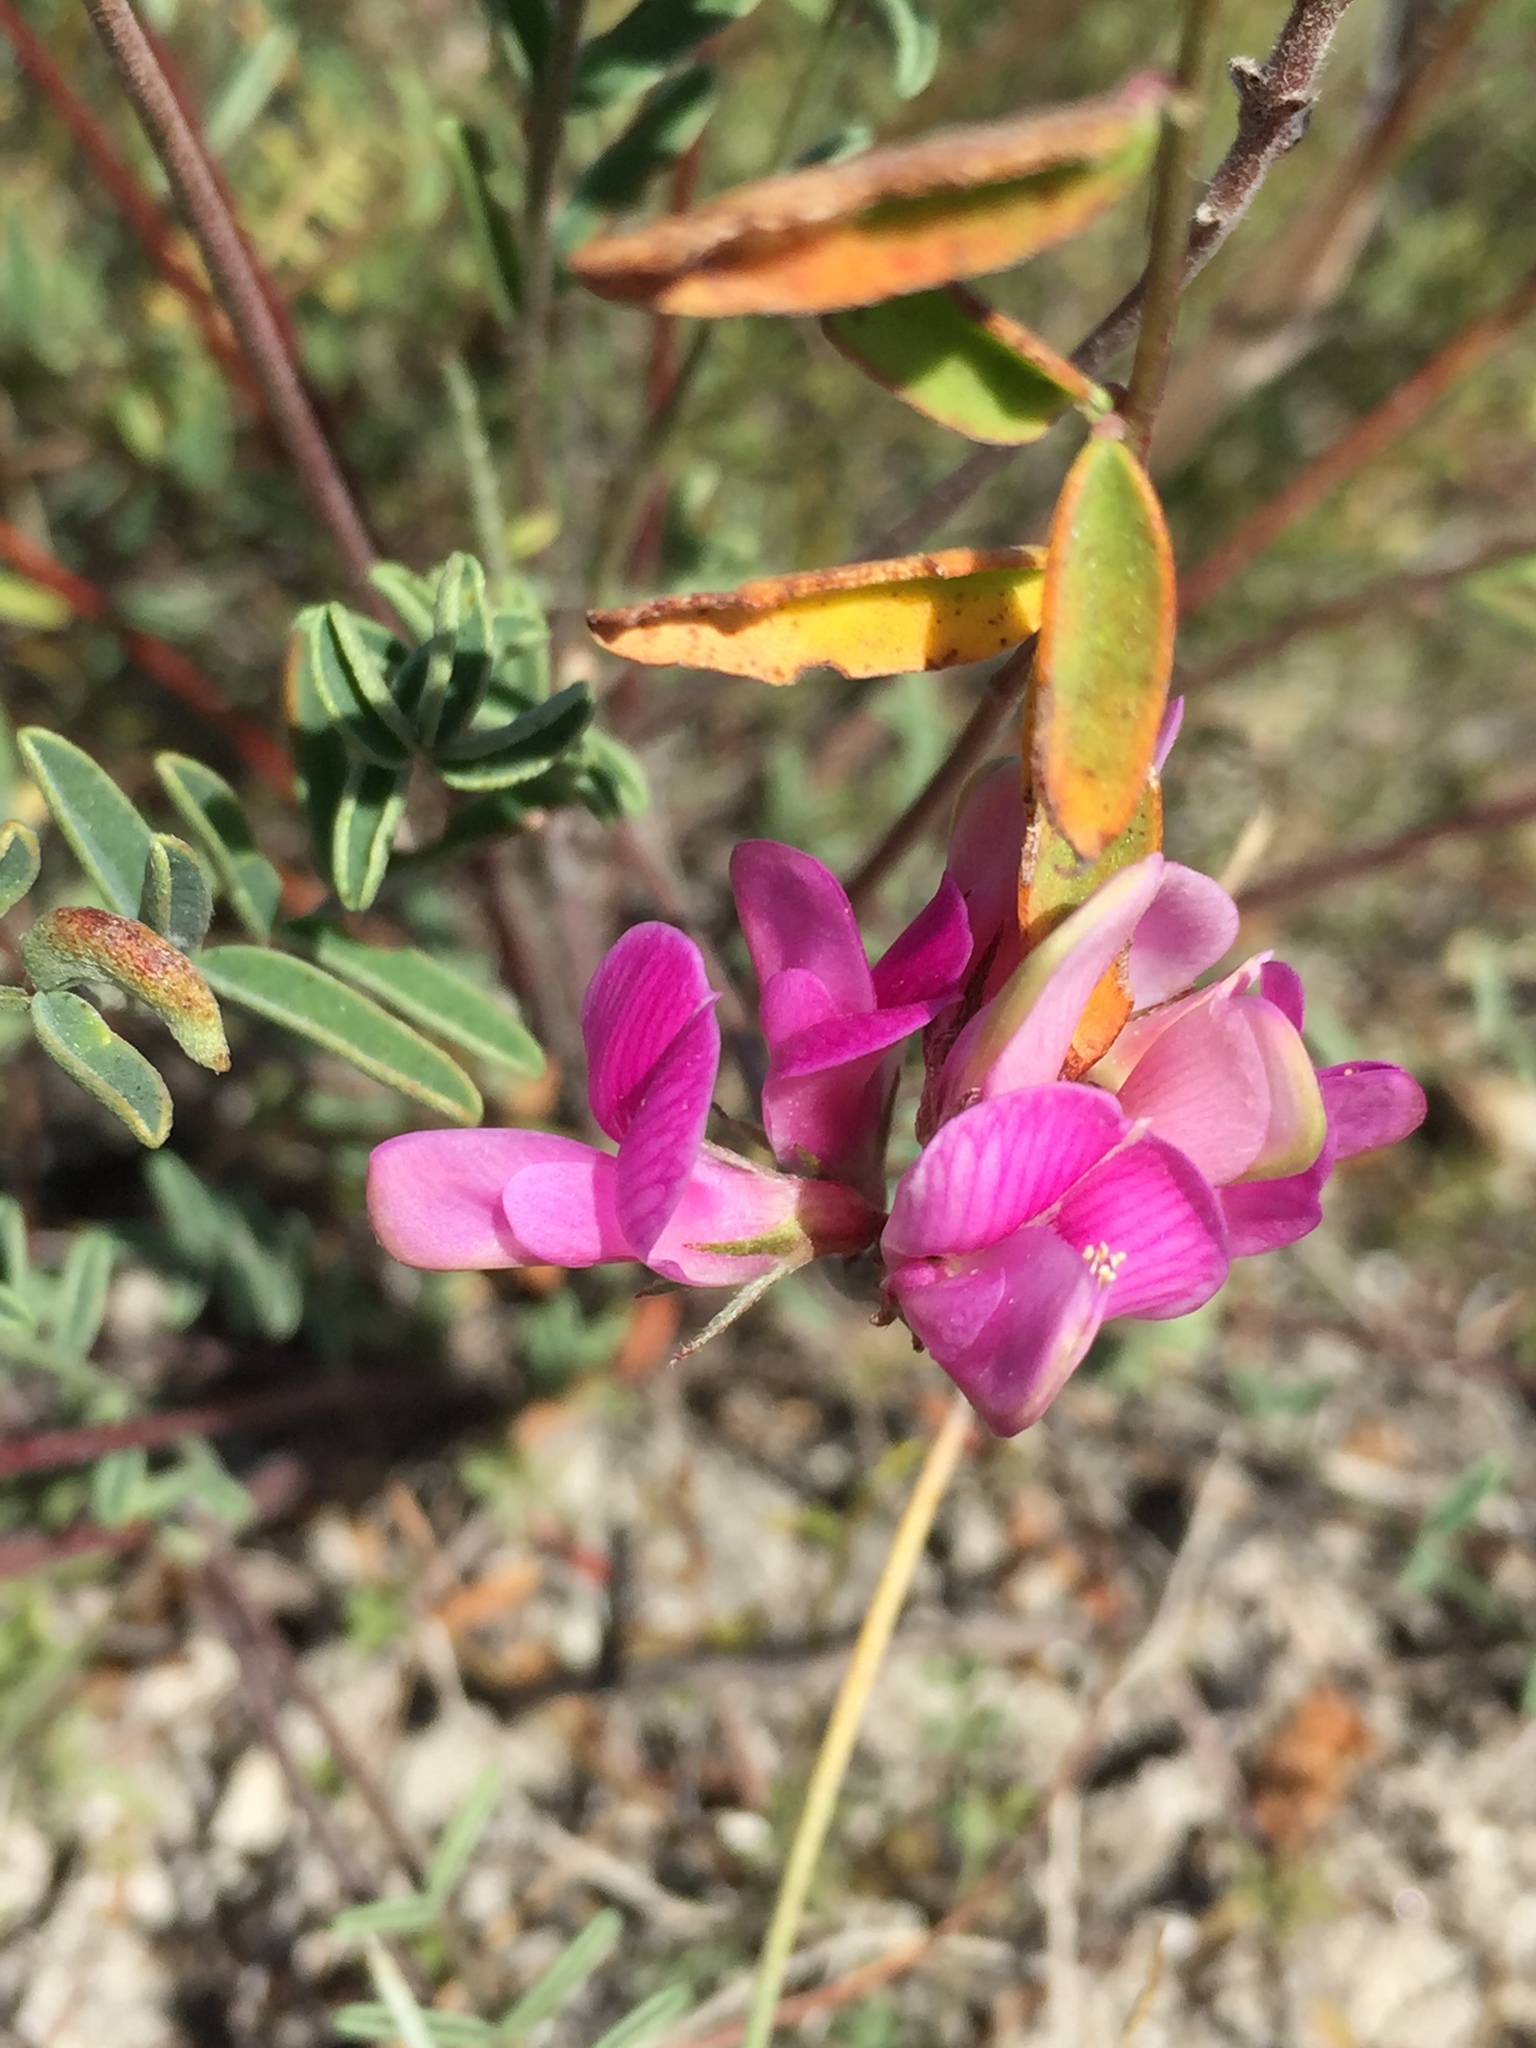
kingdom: Plantae
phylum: Tracheophyta
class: Magnoliopsida
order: Fabales
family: Fabaceae
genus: Hedysarum
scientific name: Hedysarum ucrainicum
